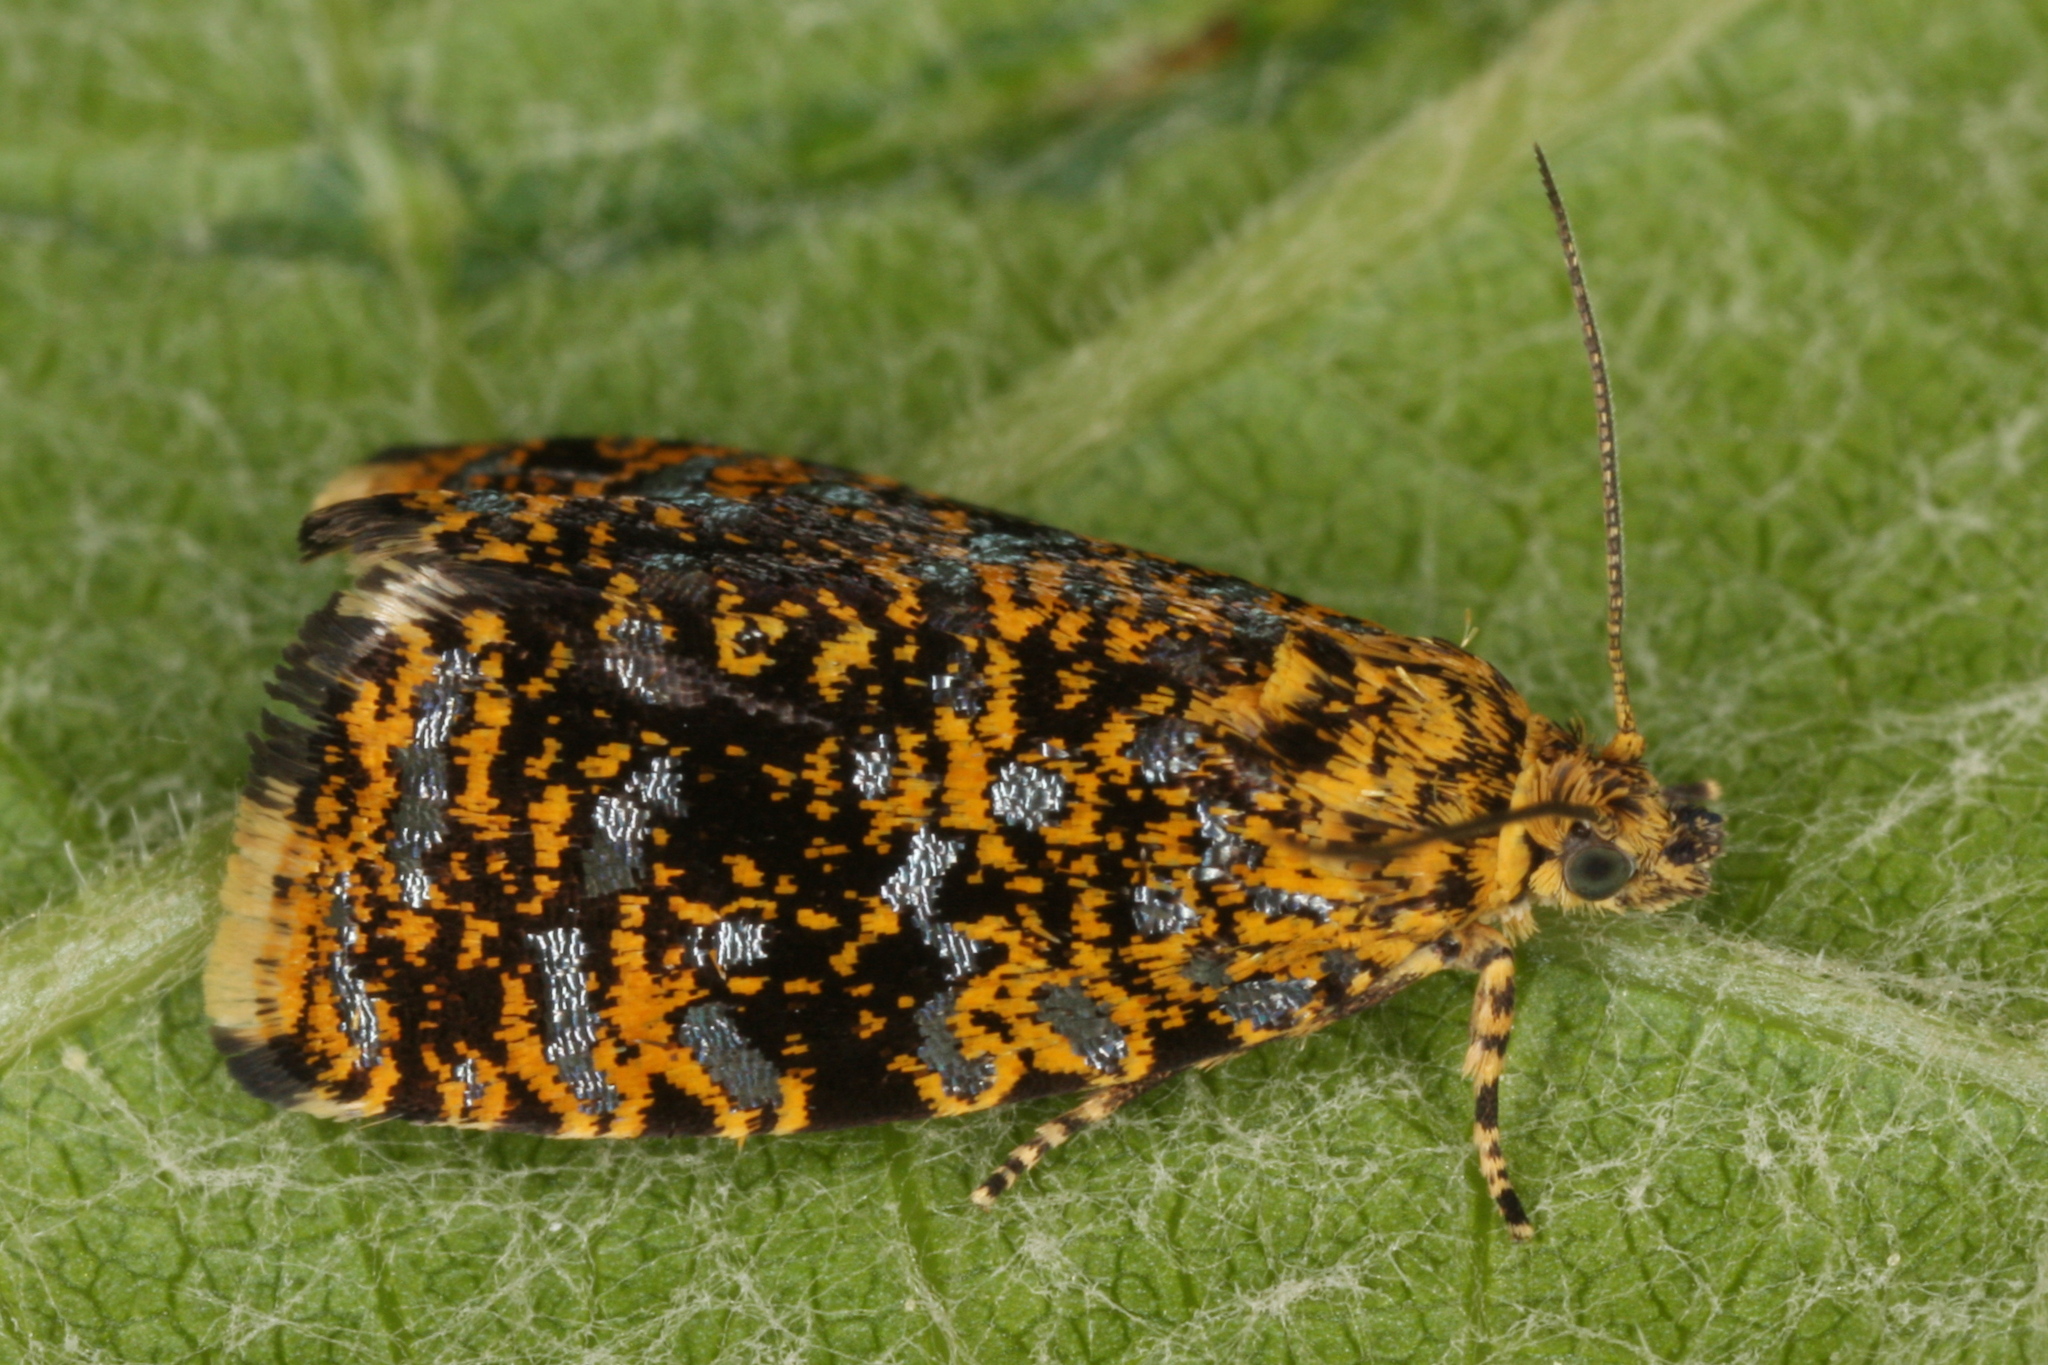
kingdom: Animalia
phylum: Arthropoda
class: Insecta
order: Lepidoptera
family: Tortricidae
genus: Phiaris
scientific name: Phiaris siderana
